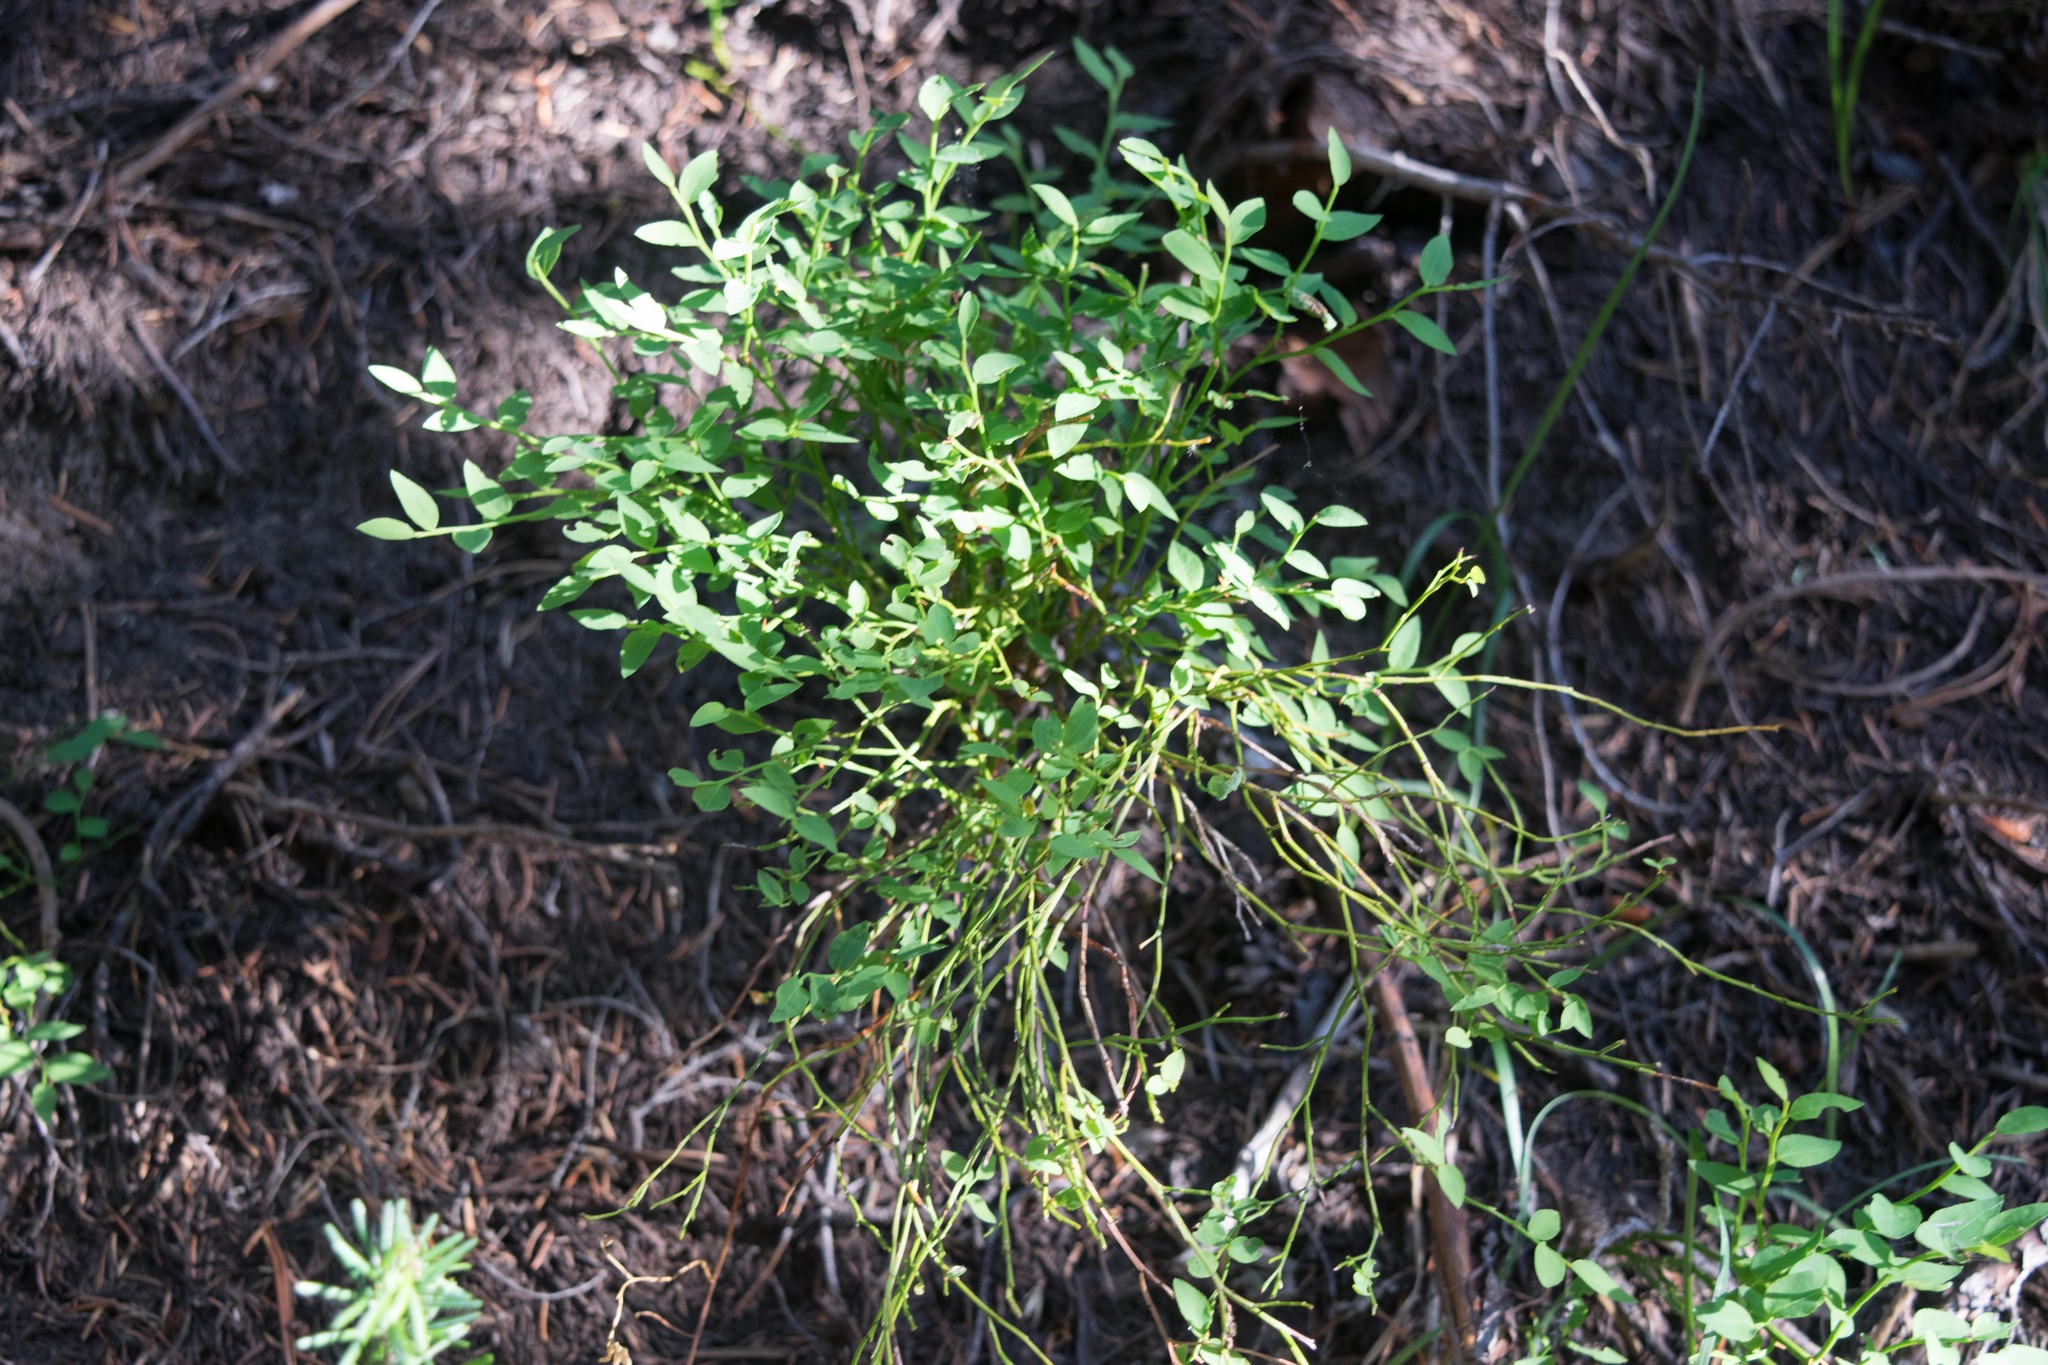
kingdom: Plantae
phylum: Tracheophyta
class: Magnoliopsida
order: Ericales
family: Ericaceae
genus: Vaccinium
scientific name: Vaccinium scoparium
